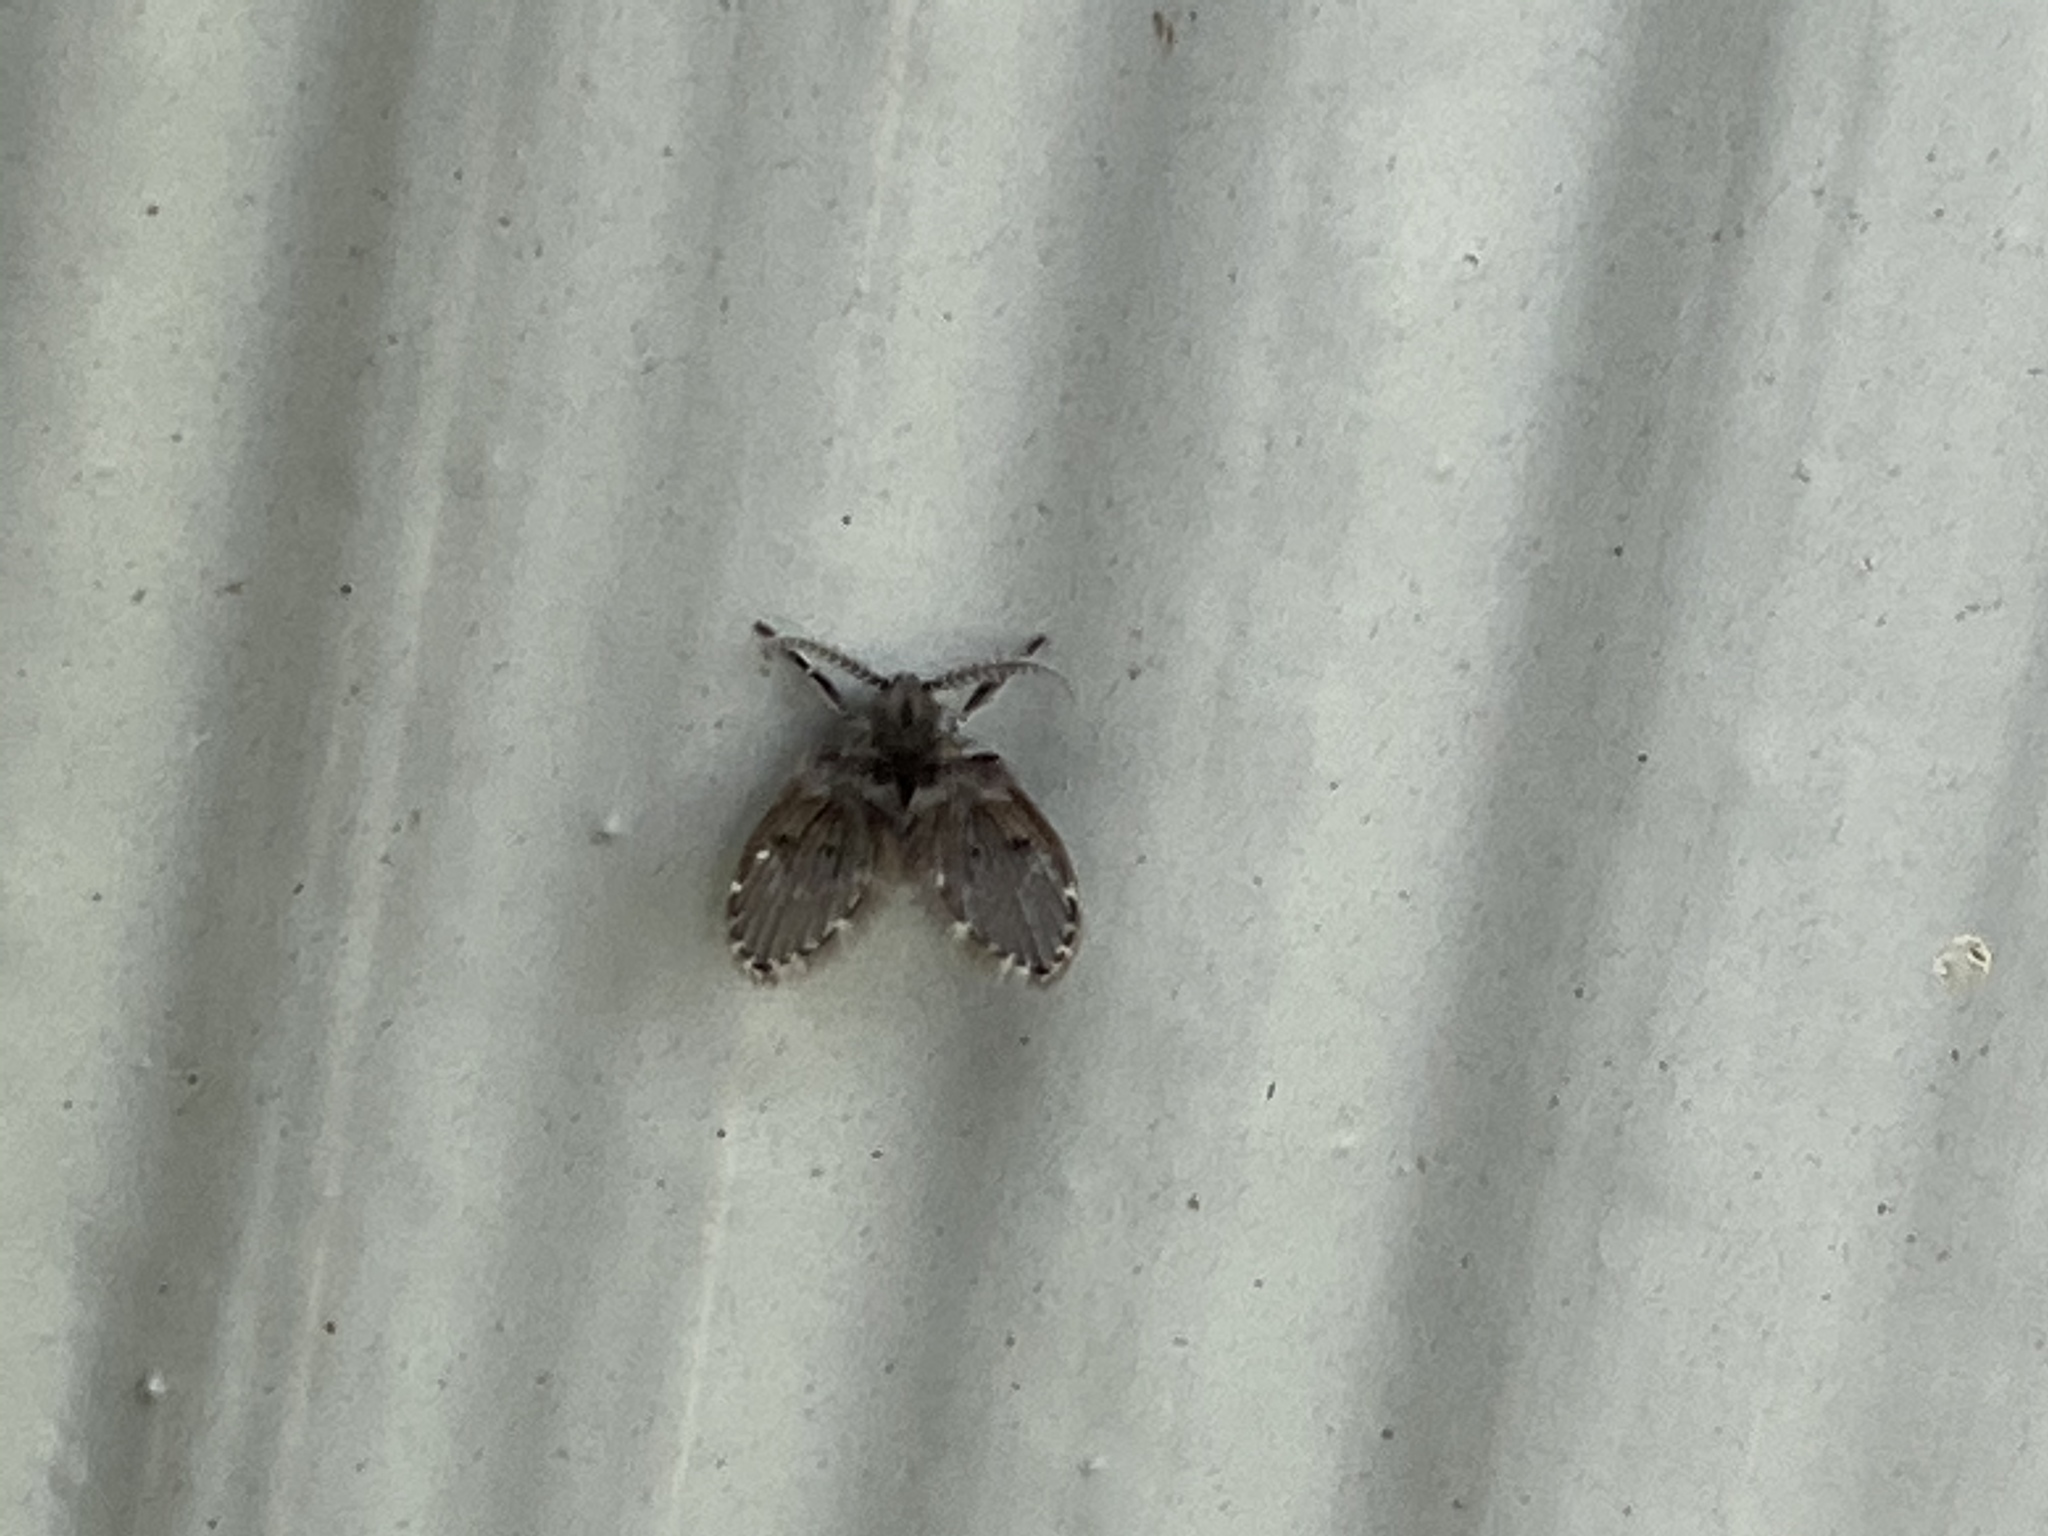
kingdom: Animalia
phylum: Arthropoda
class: Insecta
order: Diptera
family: Psychodidae
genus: Clogmia
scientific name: Clogmia albipunctatus
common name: White-spotted moth fly
